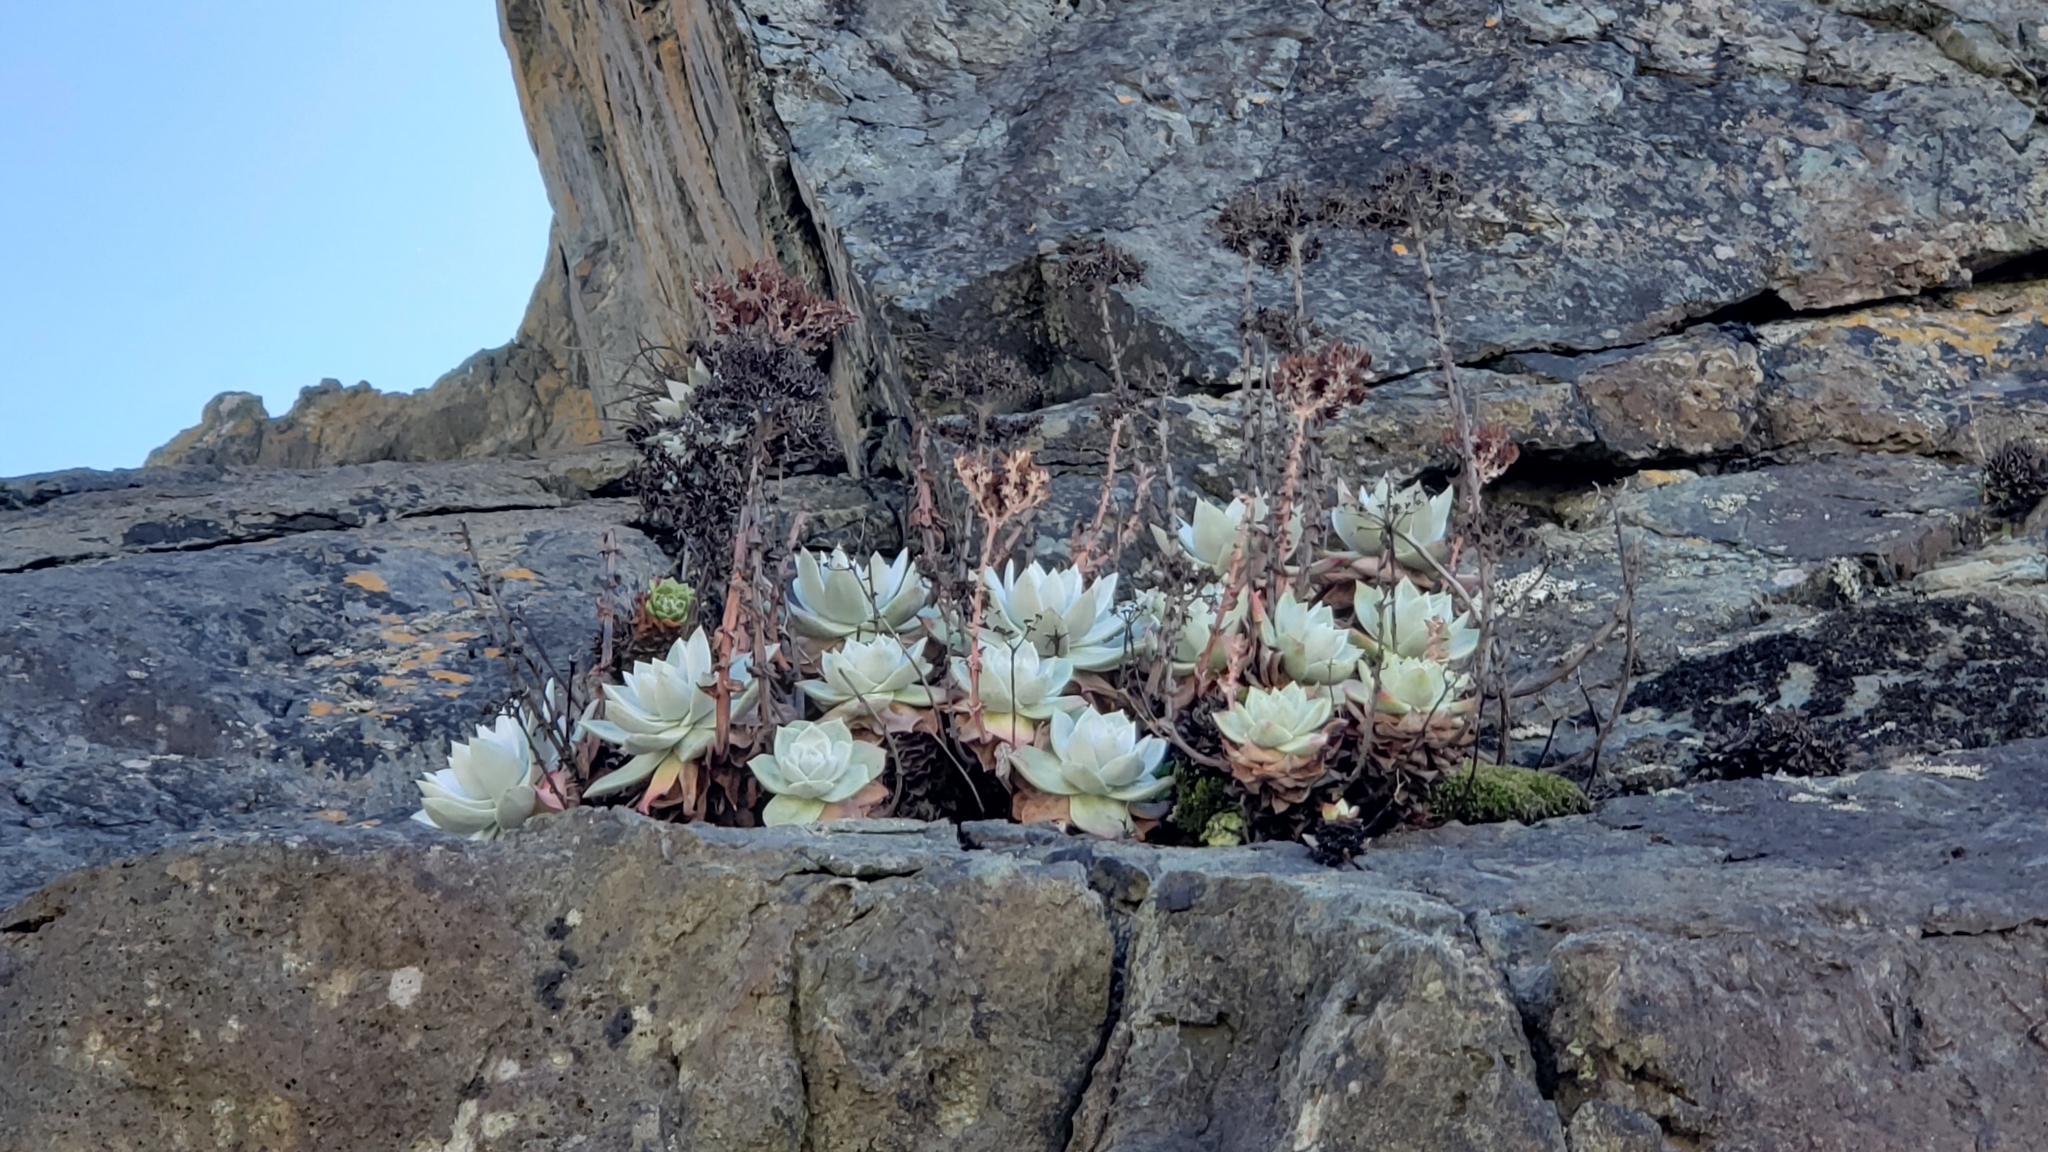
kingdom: Plantae
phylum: Tracheophyta
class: Magnoliopsida
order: Saxifragales
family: Crassulaceae
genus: Dudleya
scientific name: Dudleya farinosa
